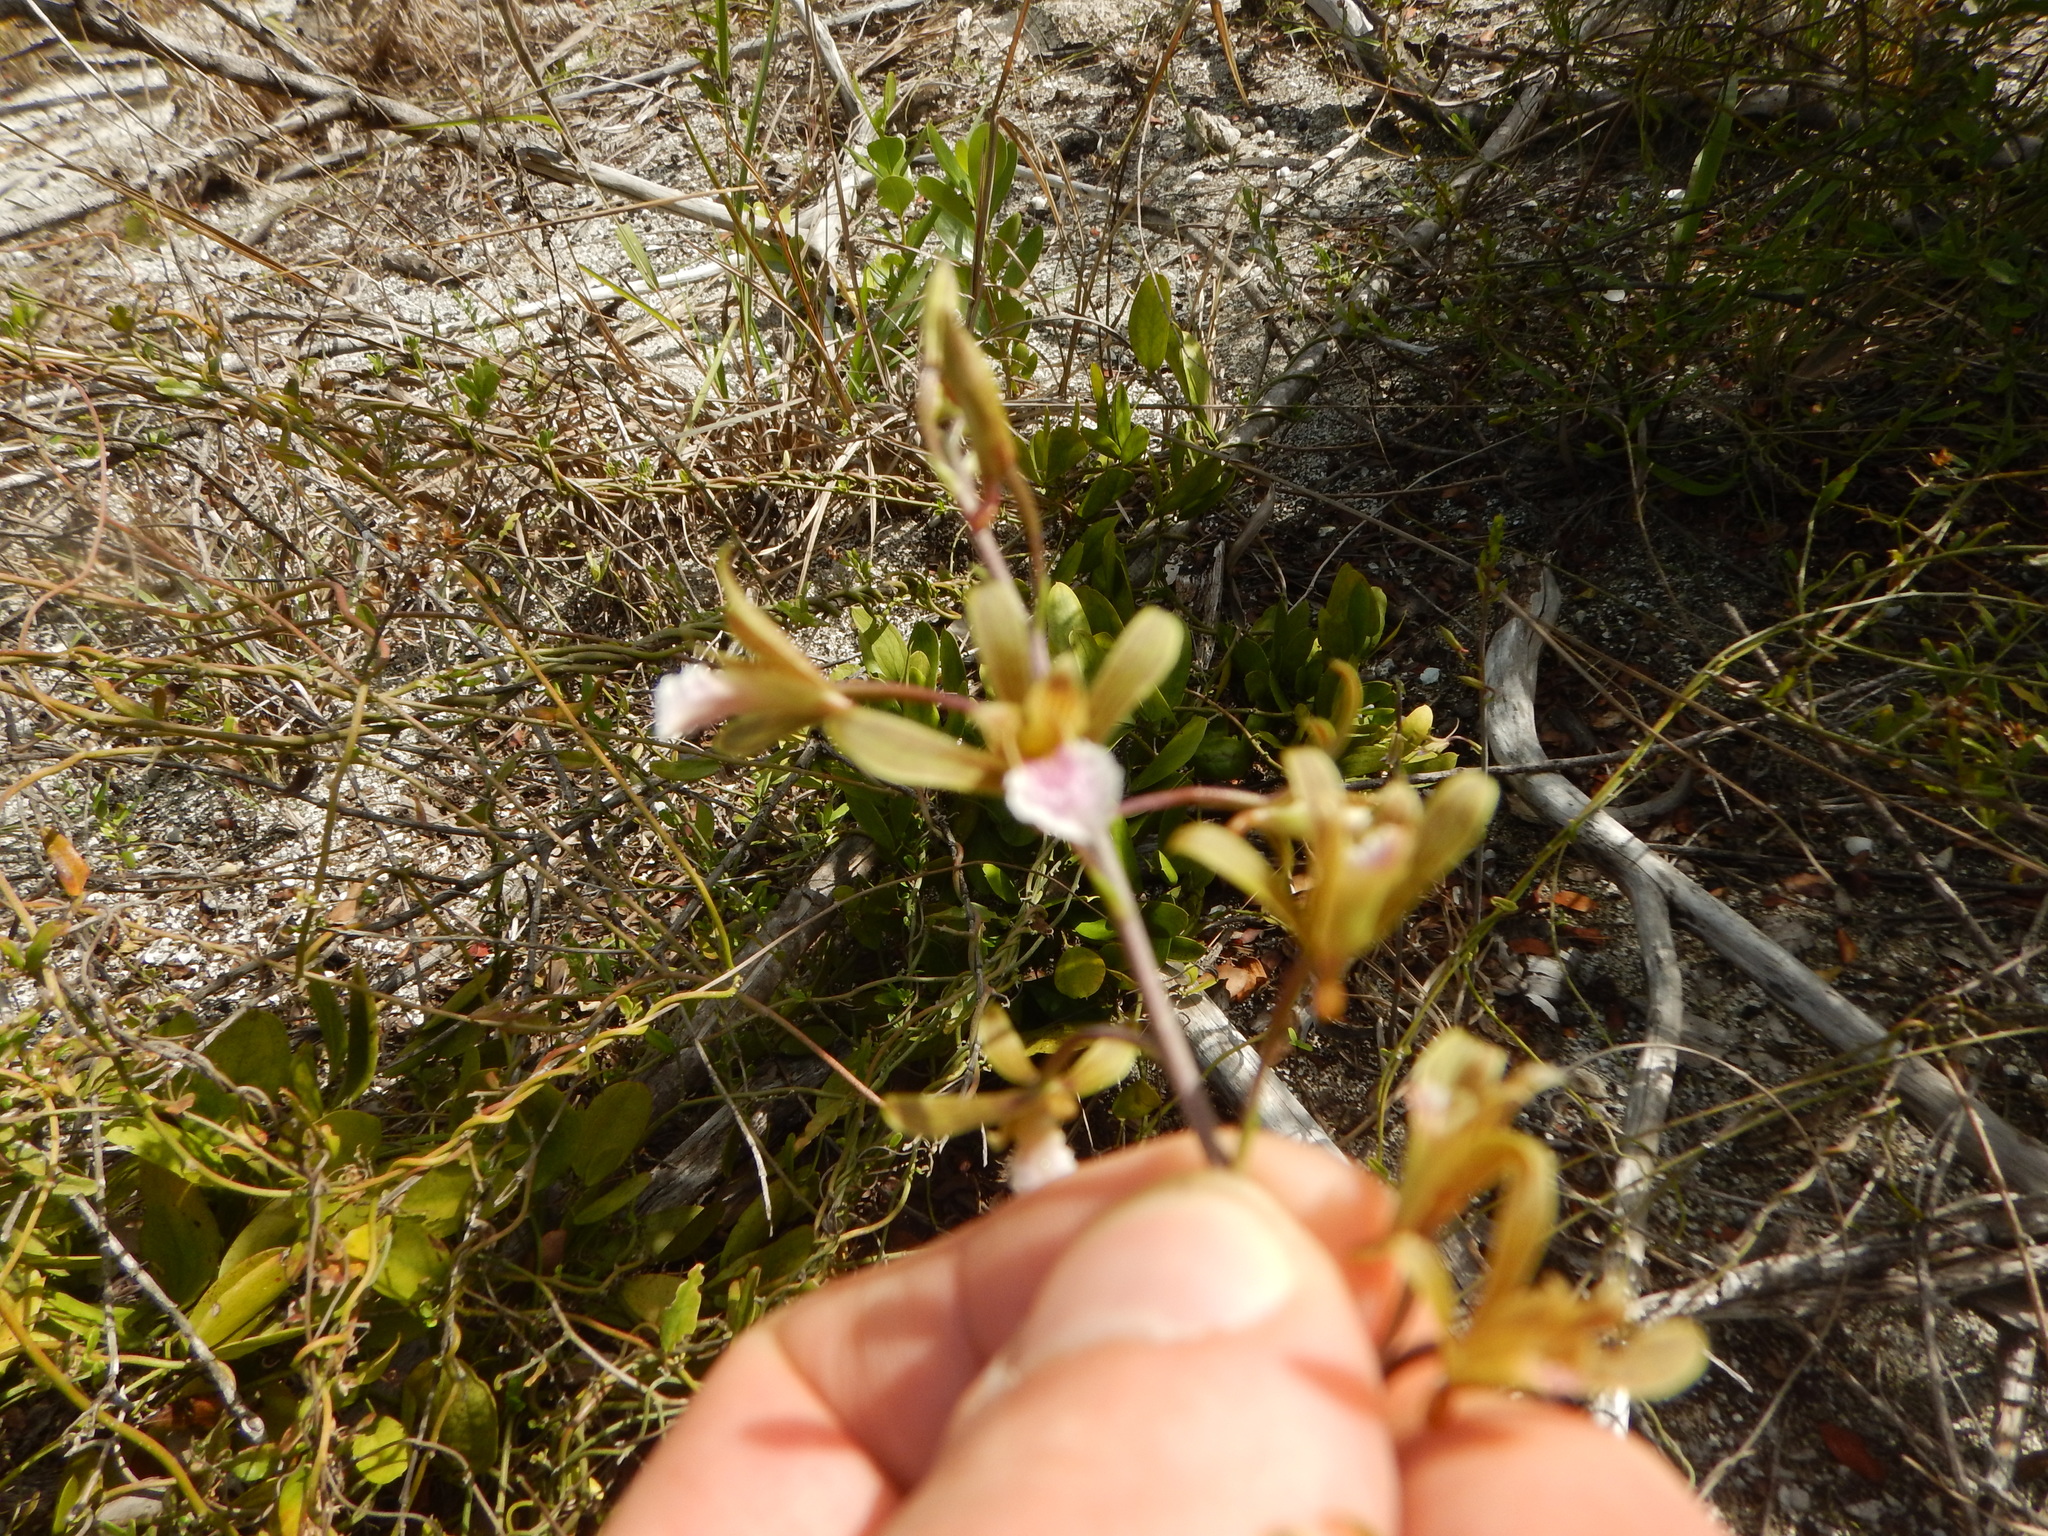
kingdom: Plantae
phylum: Tracheophyta
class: Liliopsida
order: Asparagales
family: Orchidaceae
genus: Eulophia
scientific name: Eulophia graminea
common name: Orchid
